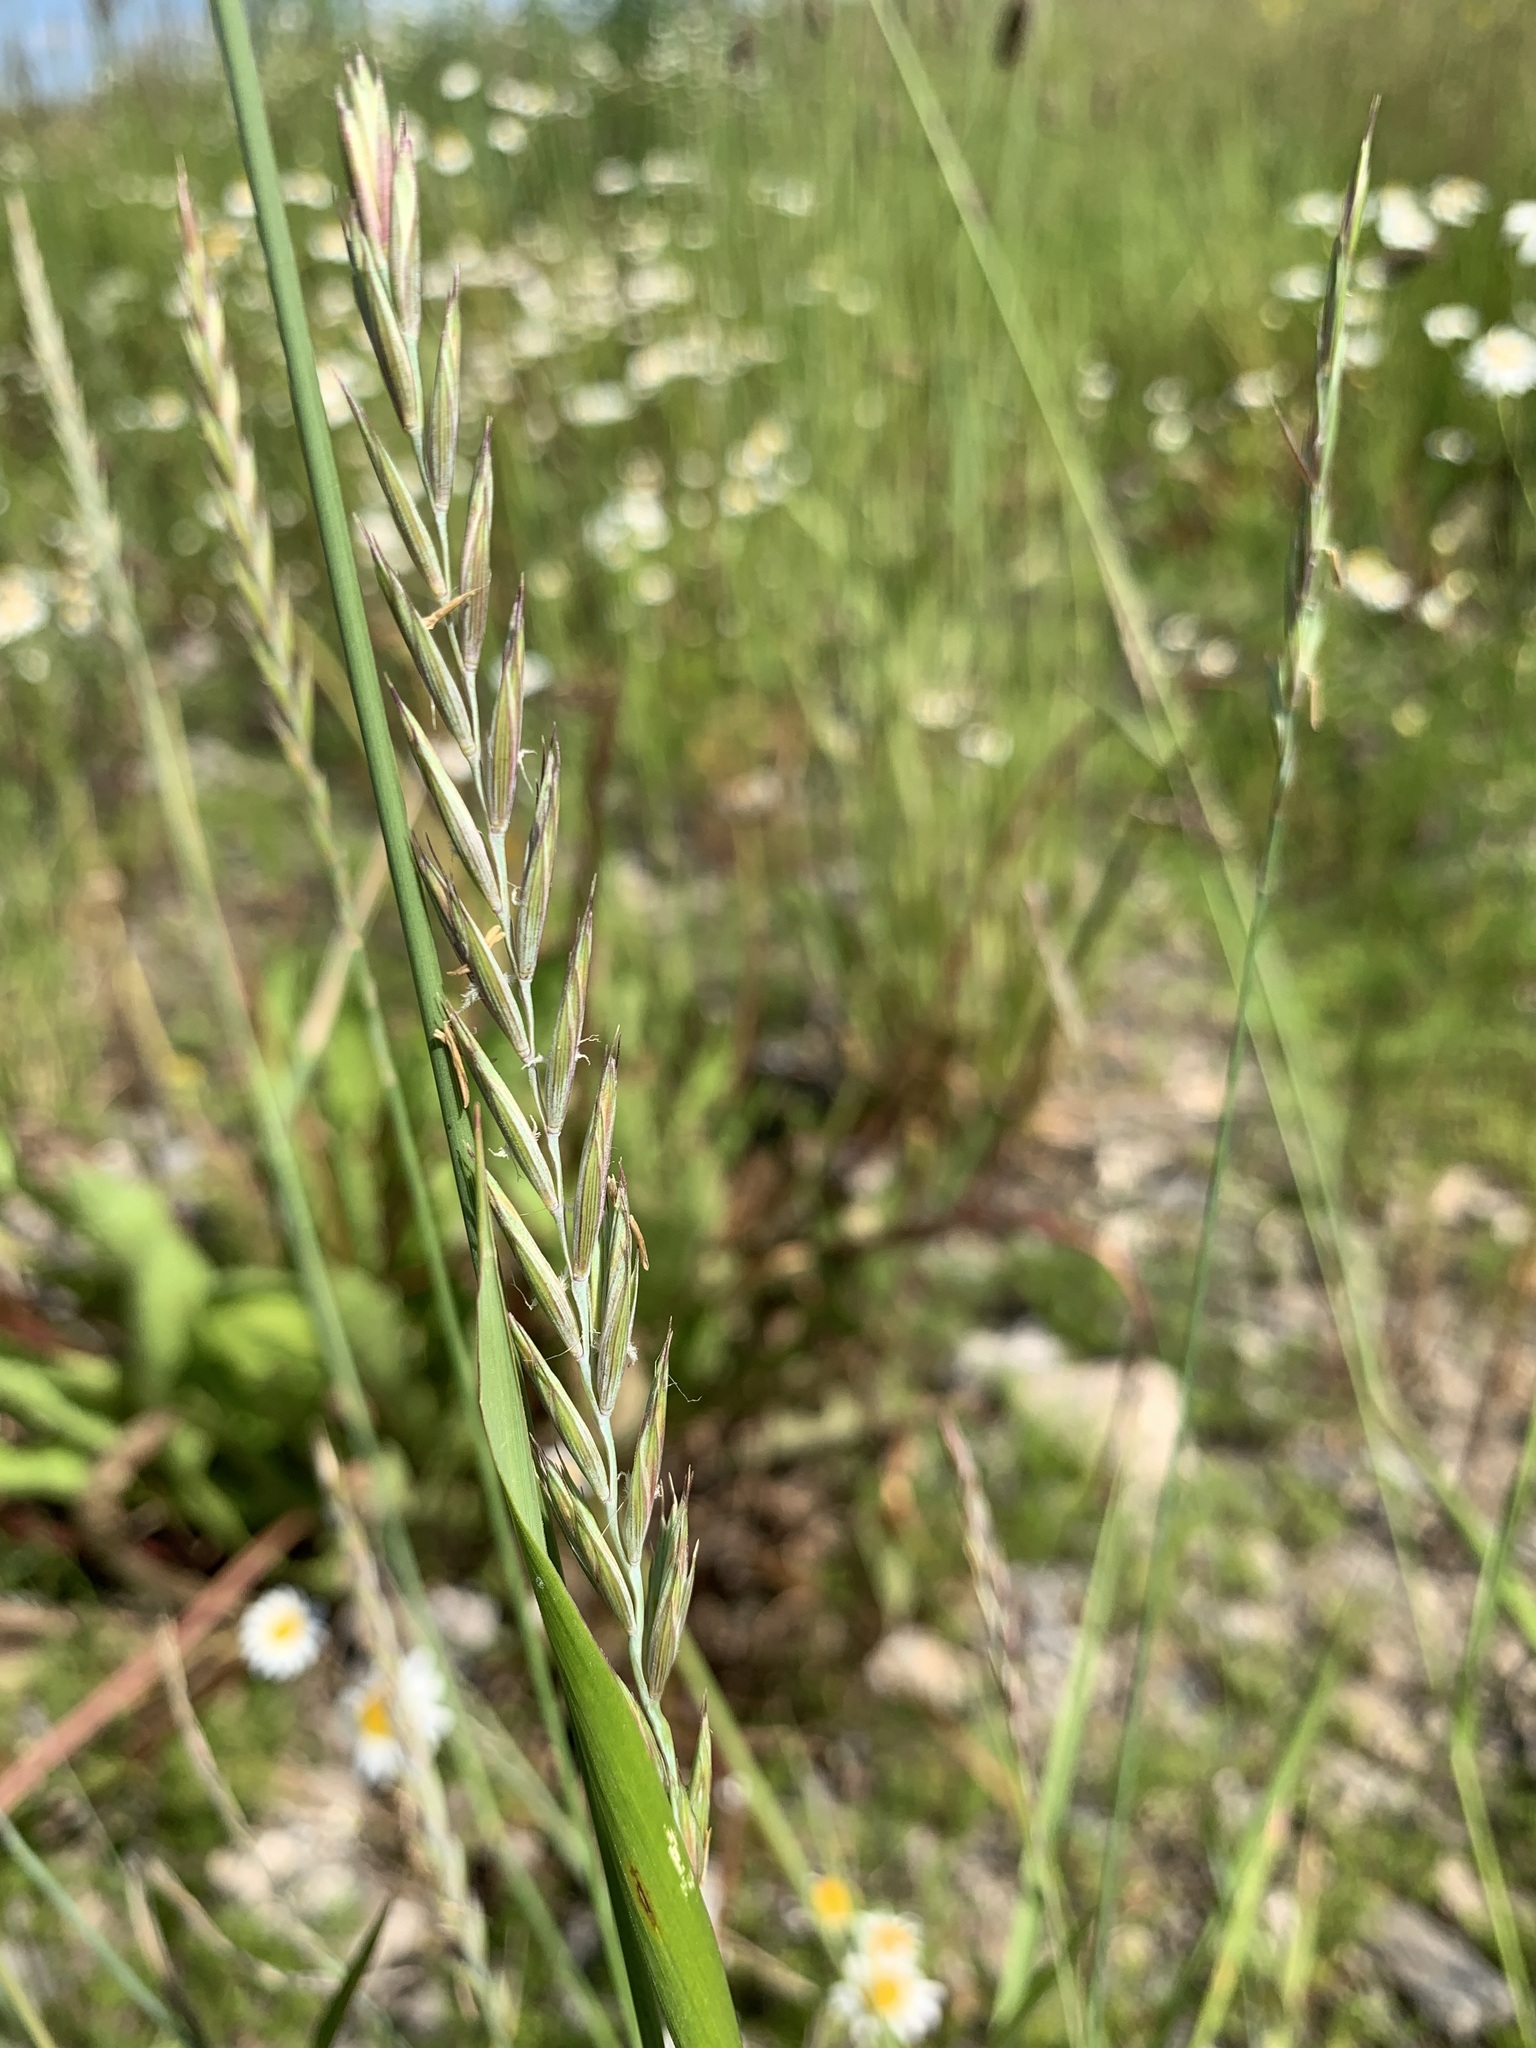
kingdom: Plantae
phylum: Tracheophyta
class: Liliopsida
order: Poales
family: Poaceae
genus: Elymus
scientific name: Elymus repens
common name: Quackgrass
